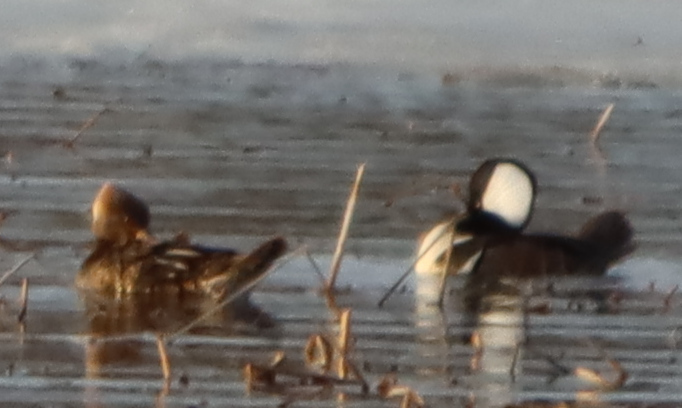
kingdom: Animalia
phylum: Chordata
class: Aves
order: Anseriformes
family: Anatidae
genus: Lophodytes
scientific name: Lophodytes cucullatus
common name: Hooded merganser
